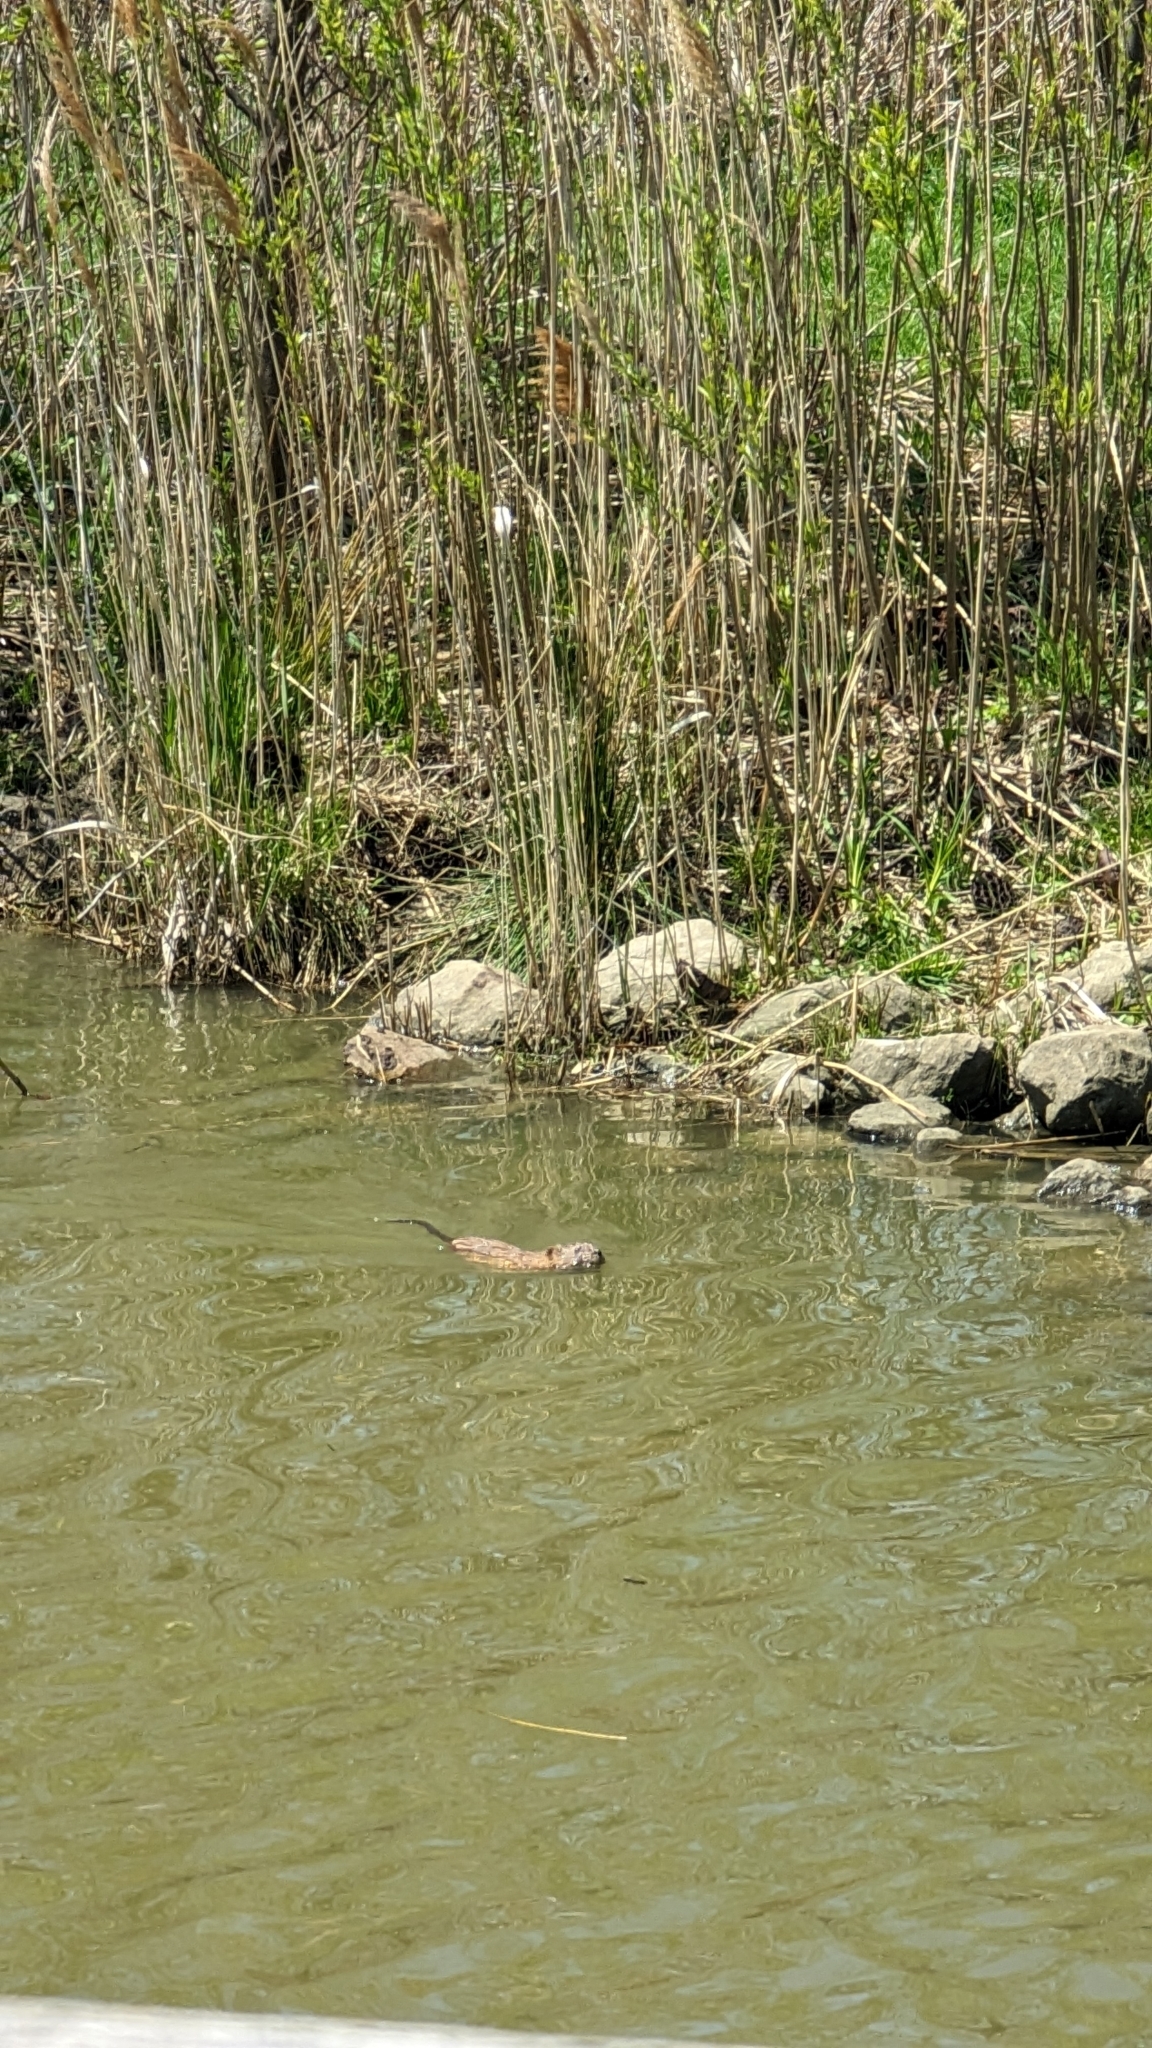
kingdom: Animalia
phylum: Chordata
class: Mammalia
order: Rodentia
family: Cricetidae
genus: Ondatra
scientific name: Ondatra zibethicus
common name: Muskrat
